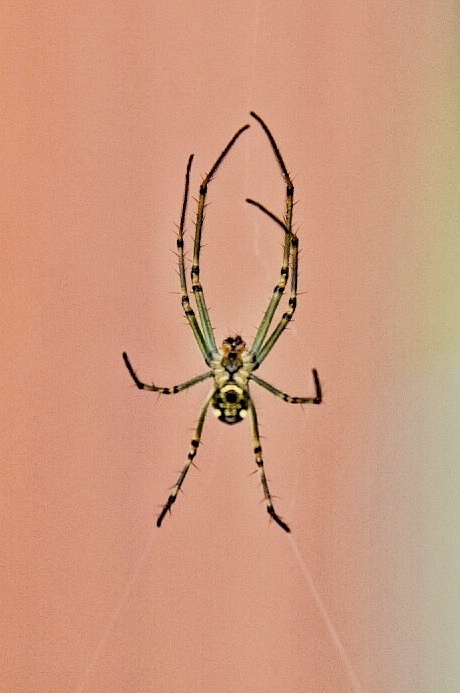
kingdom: Animalia
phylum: Arthropoda
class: Arachnida
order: Araneae
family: Tetragnathidae
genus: Leucauge
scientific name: Leucauge venusta
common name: Longjawed orb weavers
